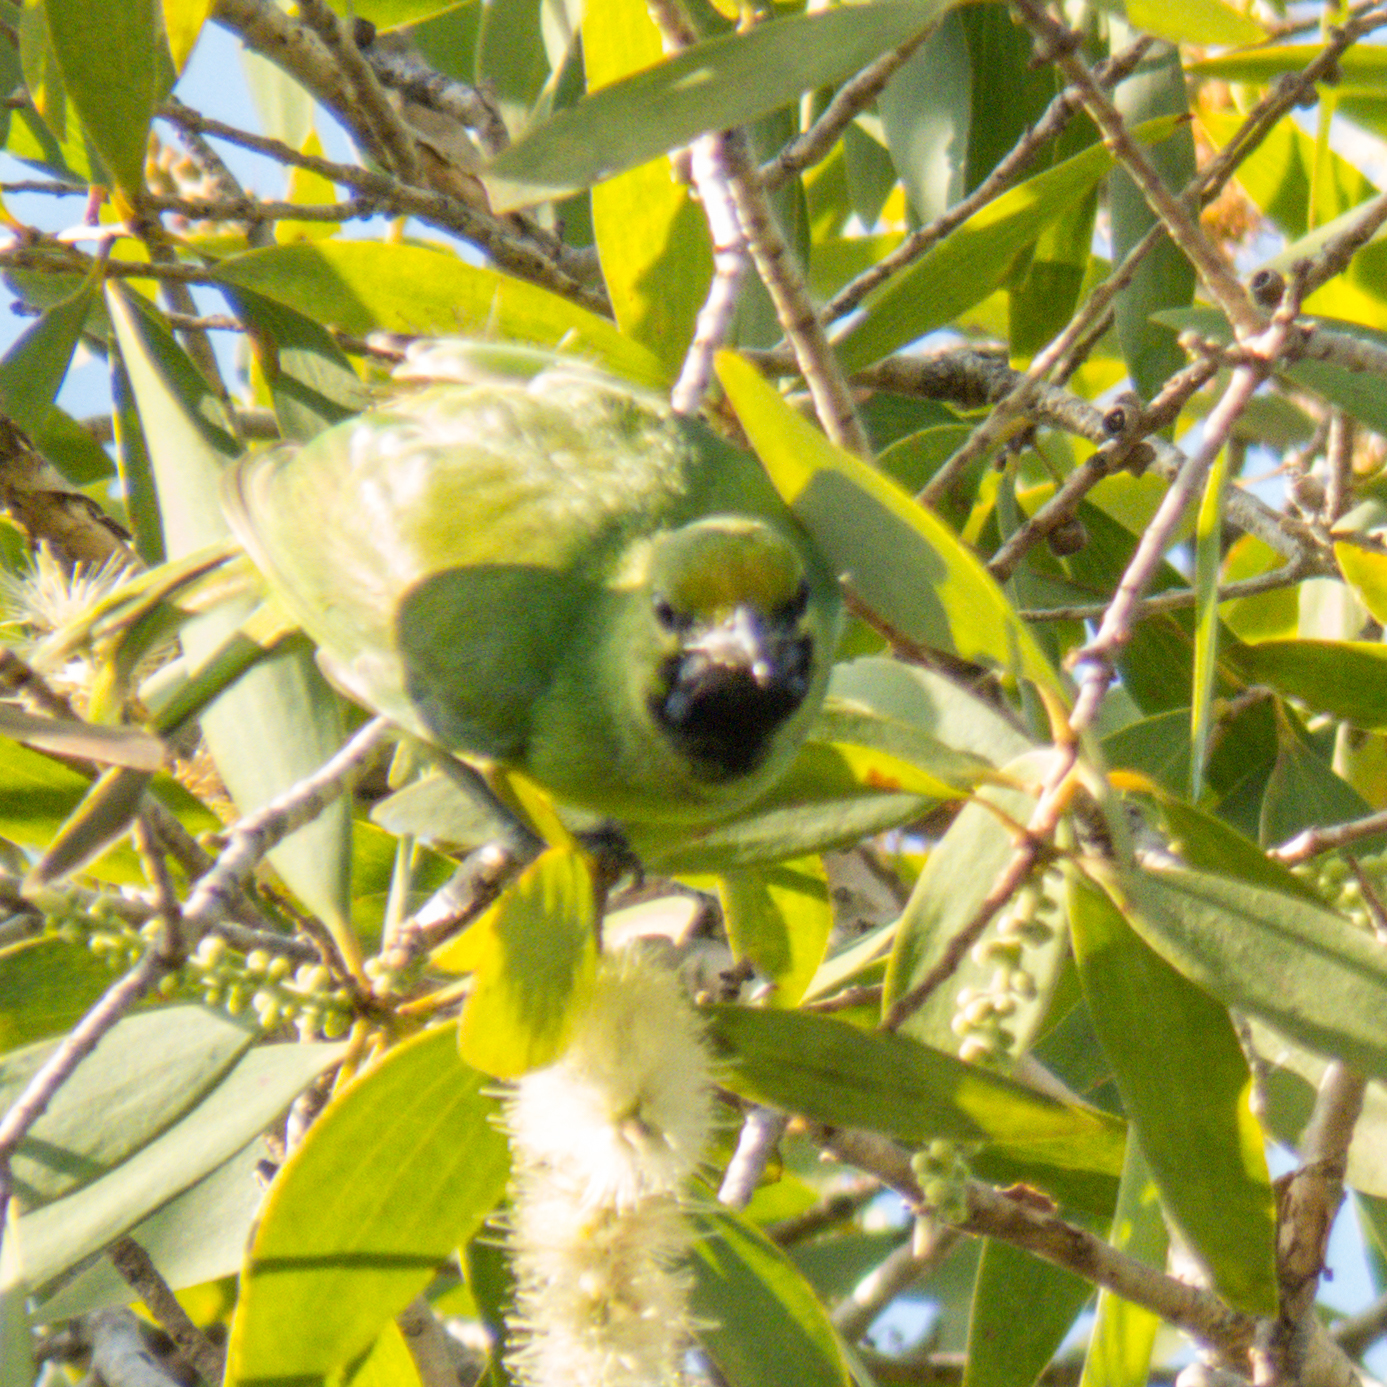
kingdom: Animalia
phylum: Chordata
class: Aves
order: Passeriformes
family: Chloropseidae
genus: Chloropsis
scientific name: Chloropsis aurifrons
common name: Golden-fronted leafbird
